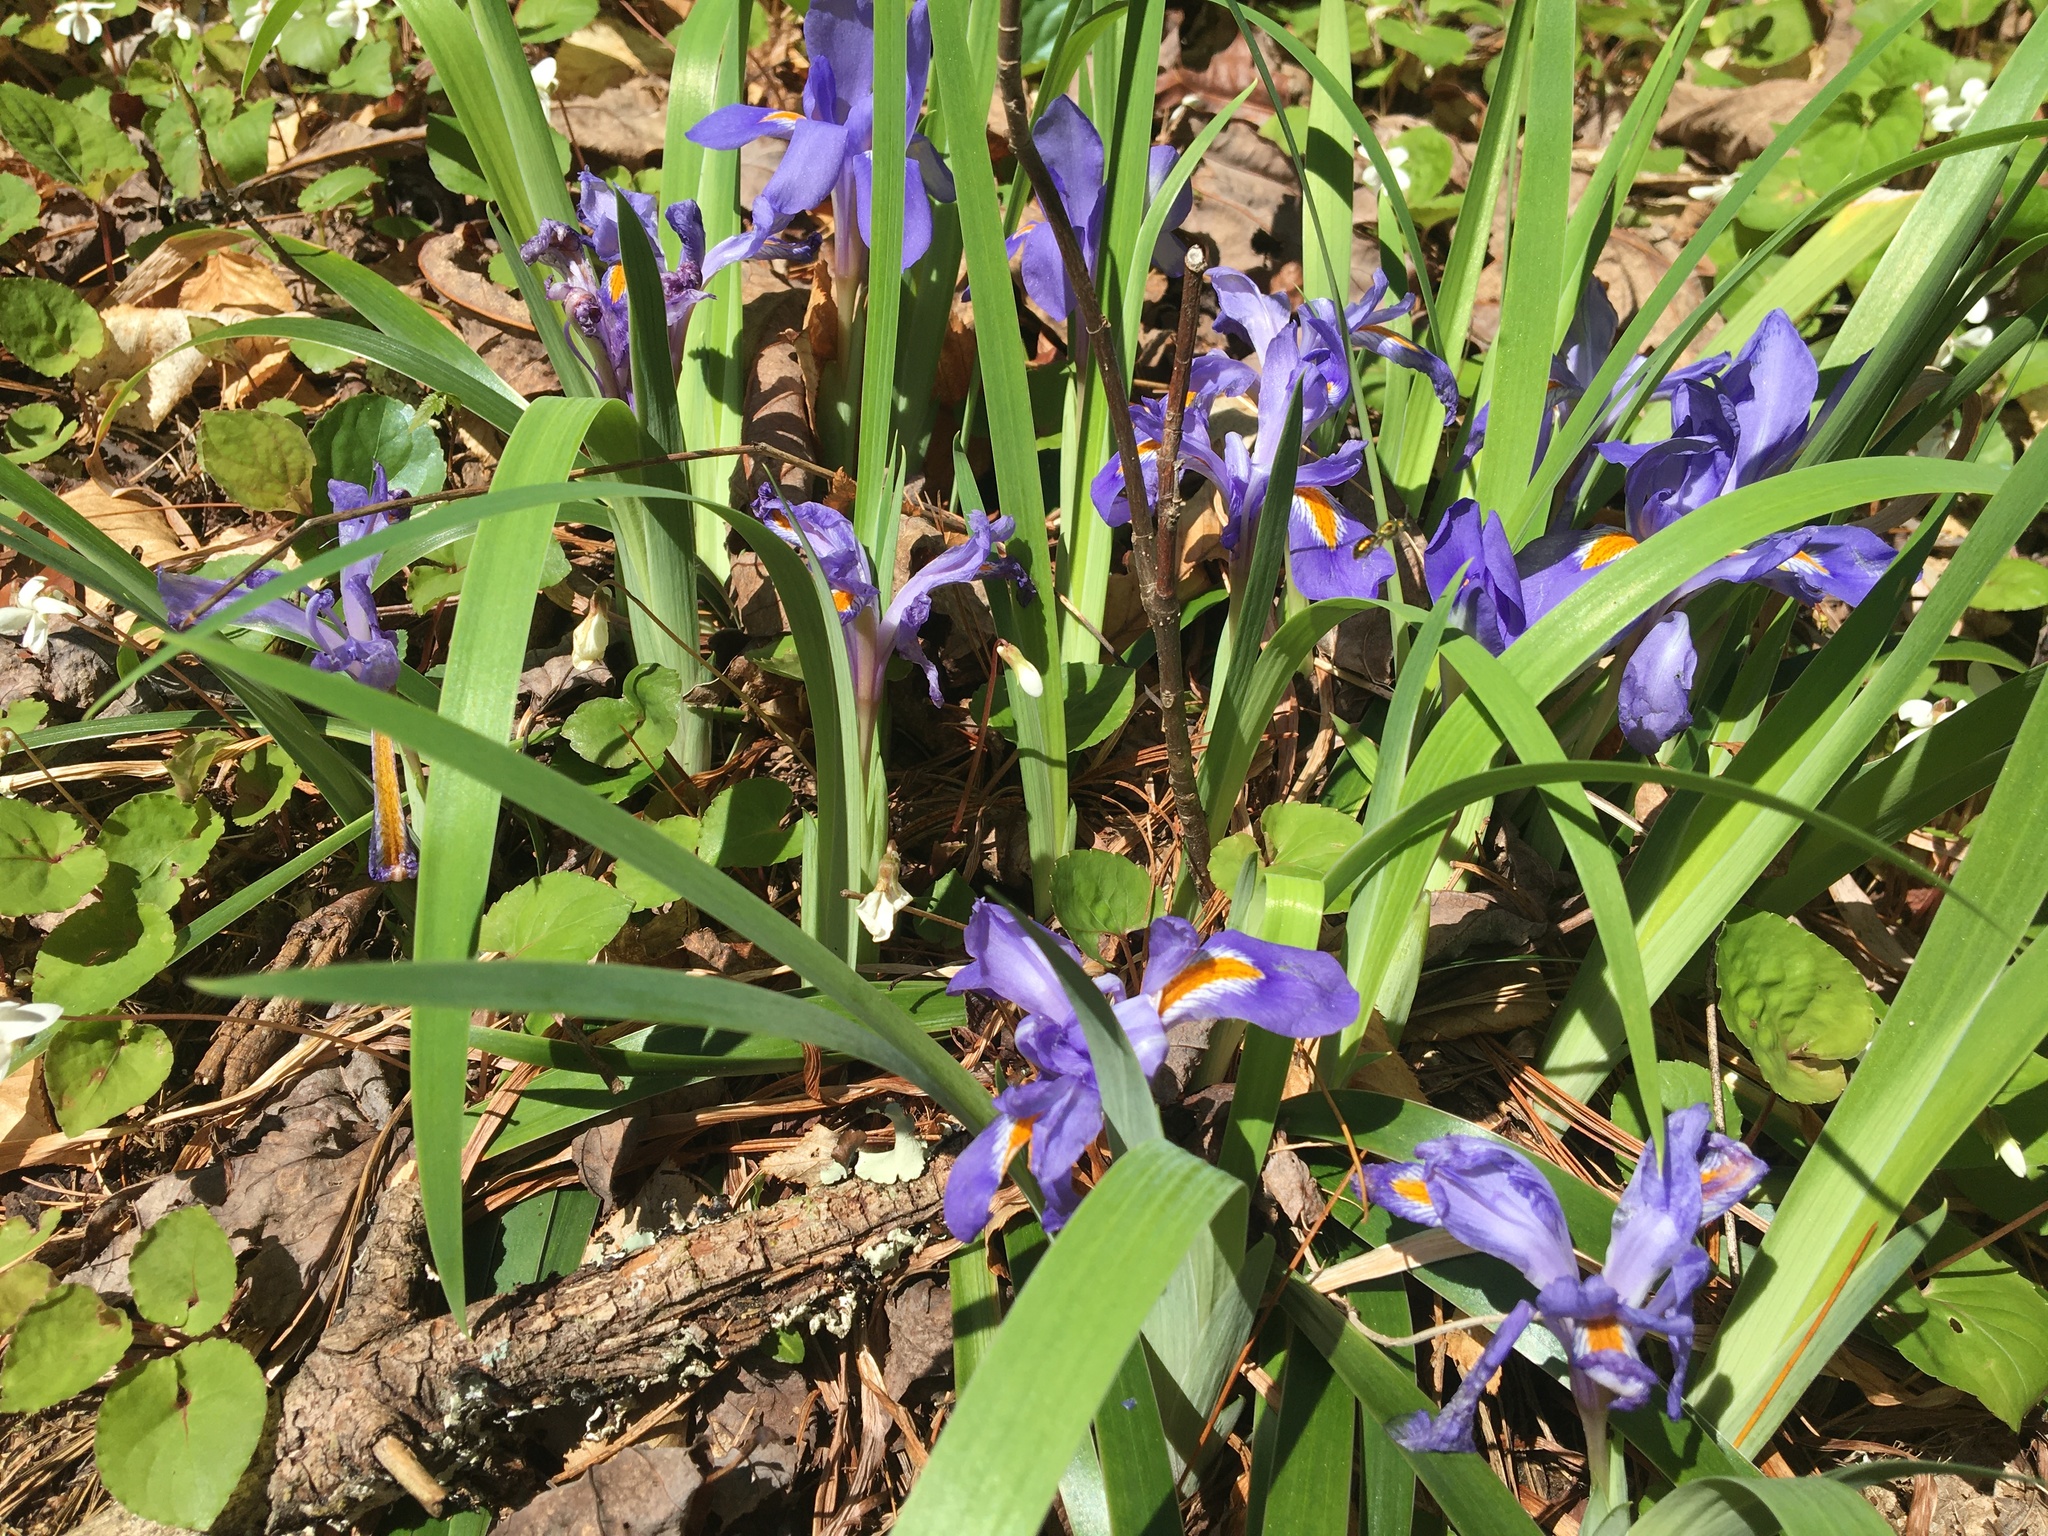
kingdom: Plantae
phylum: Tracheophyta
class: Liliopsida
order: Asparagales
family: Iridaceae
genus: Iris
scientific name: Iris verna
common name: Dwarf iris
